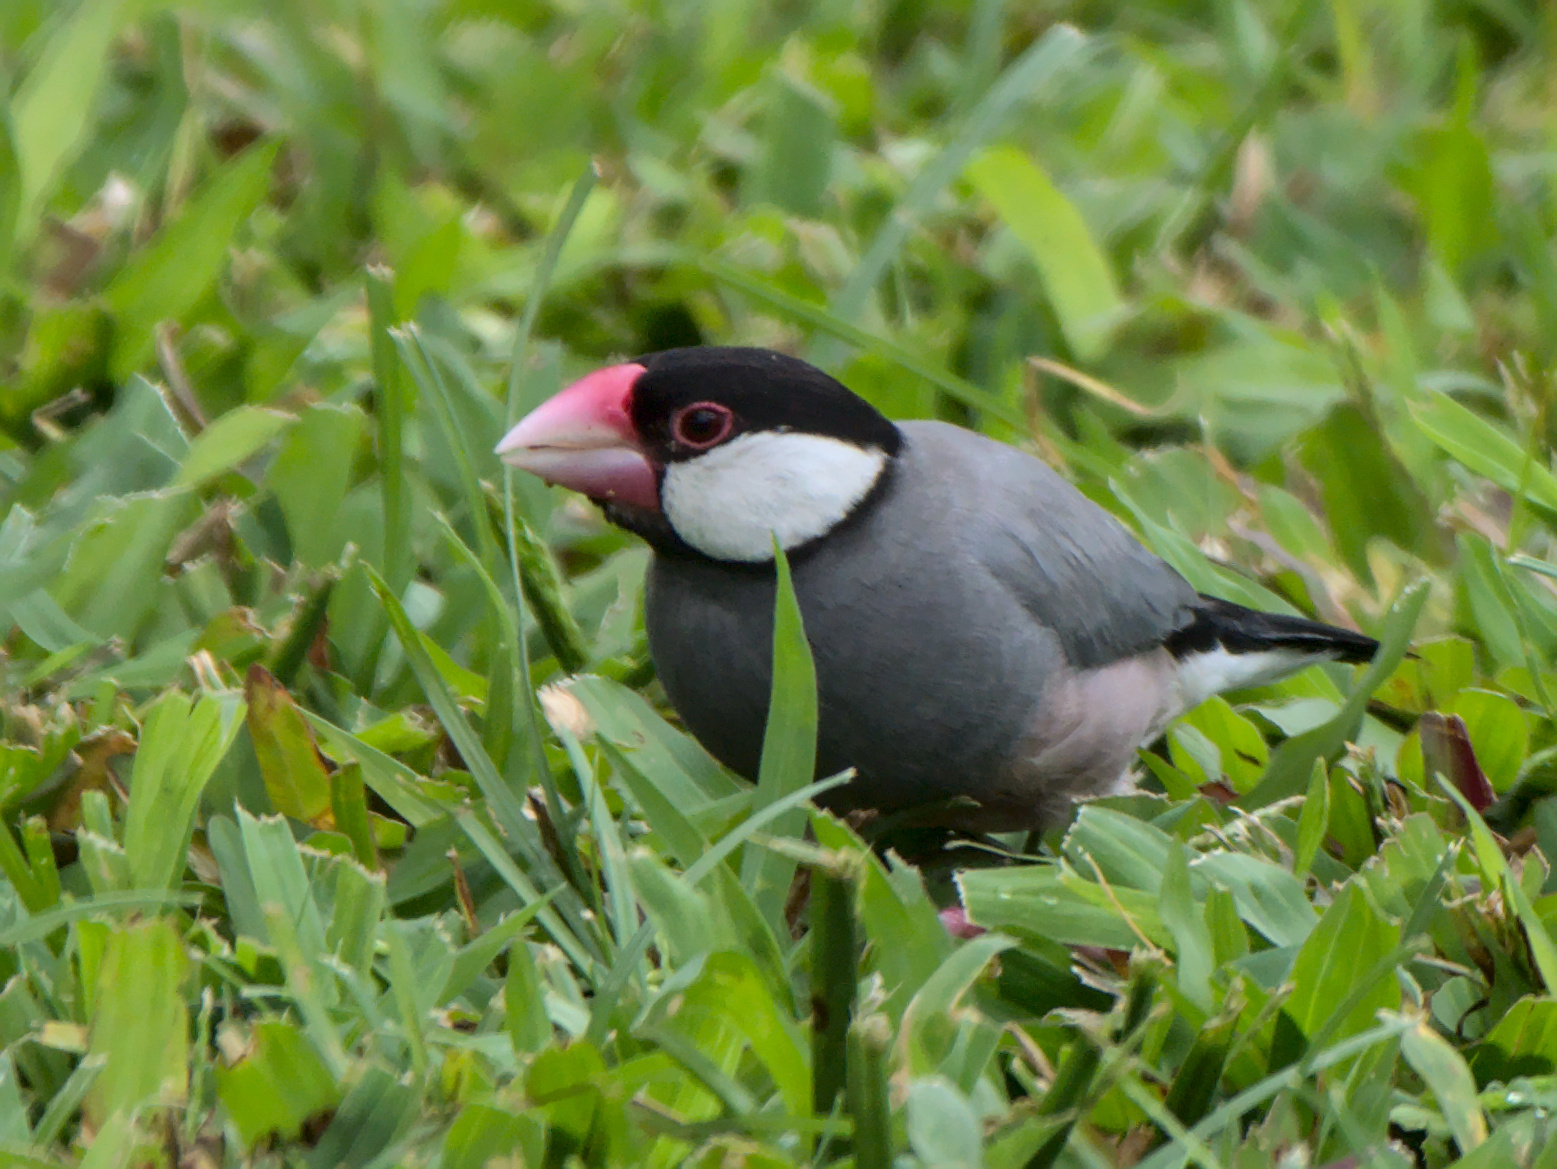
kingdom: Animalia
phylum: Chordata
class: Aves
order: Passeriformes
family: Estrildidae
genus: Lonchura
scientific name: Lonchura oryzivora
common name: Java sparrow
